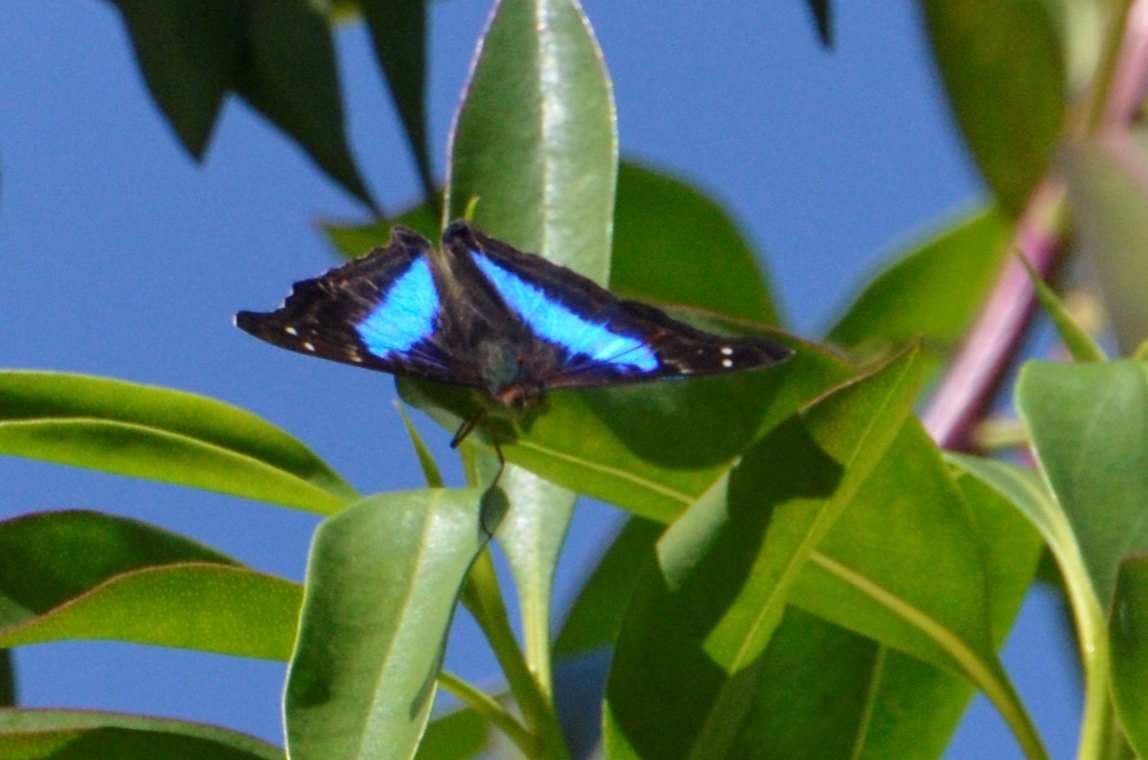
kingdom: Animalia
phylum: Arthropoda
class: Insecta
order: Lepidoptera
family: Nymphalidae
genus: Doxocopa
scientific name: Doxocopa laurentia
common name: Turquoise emperor
